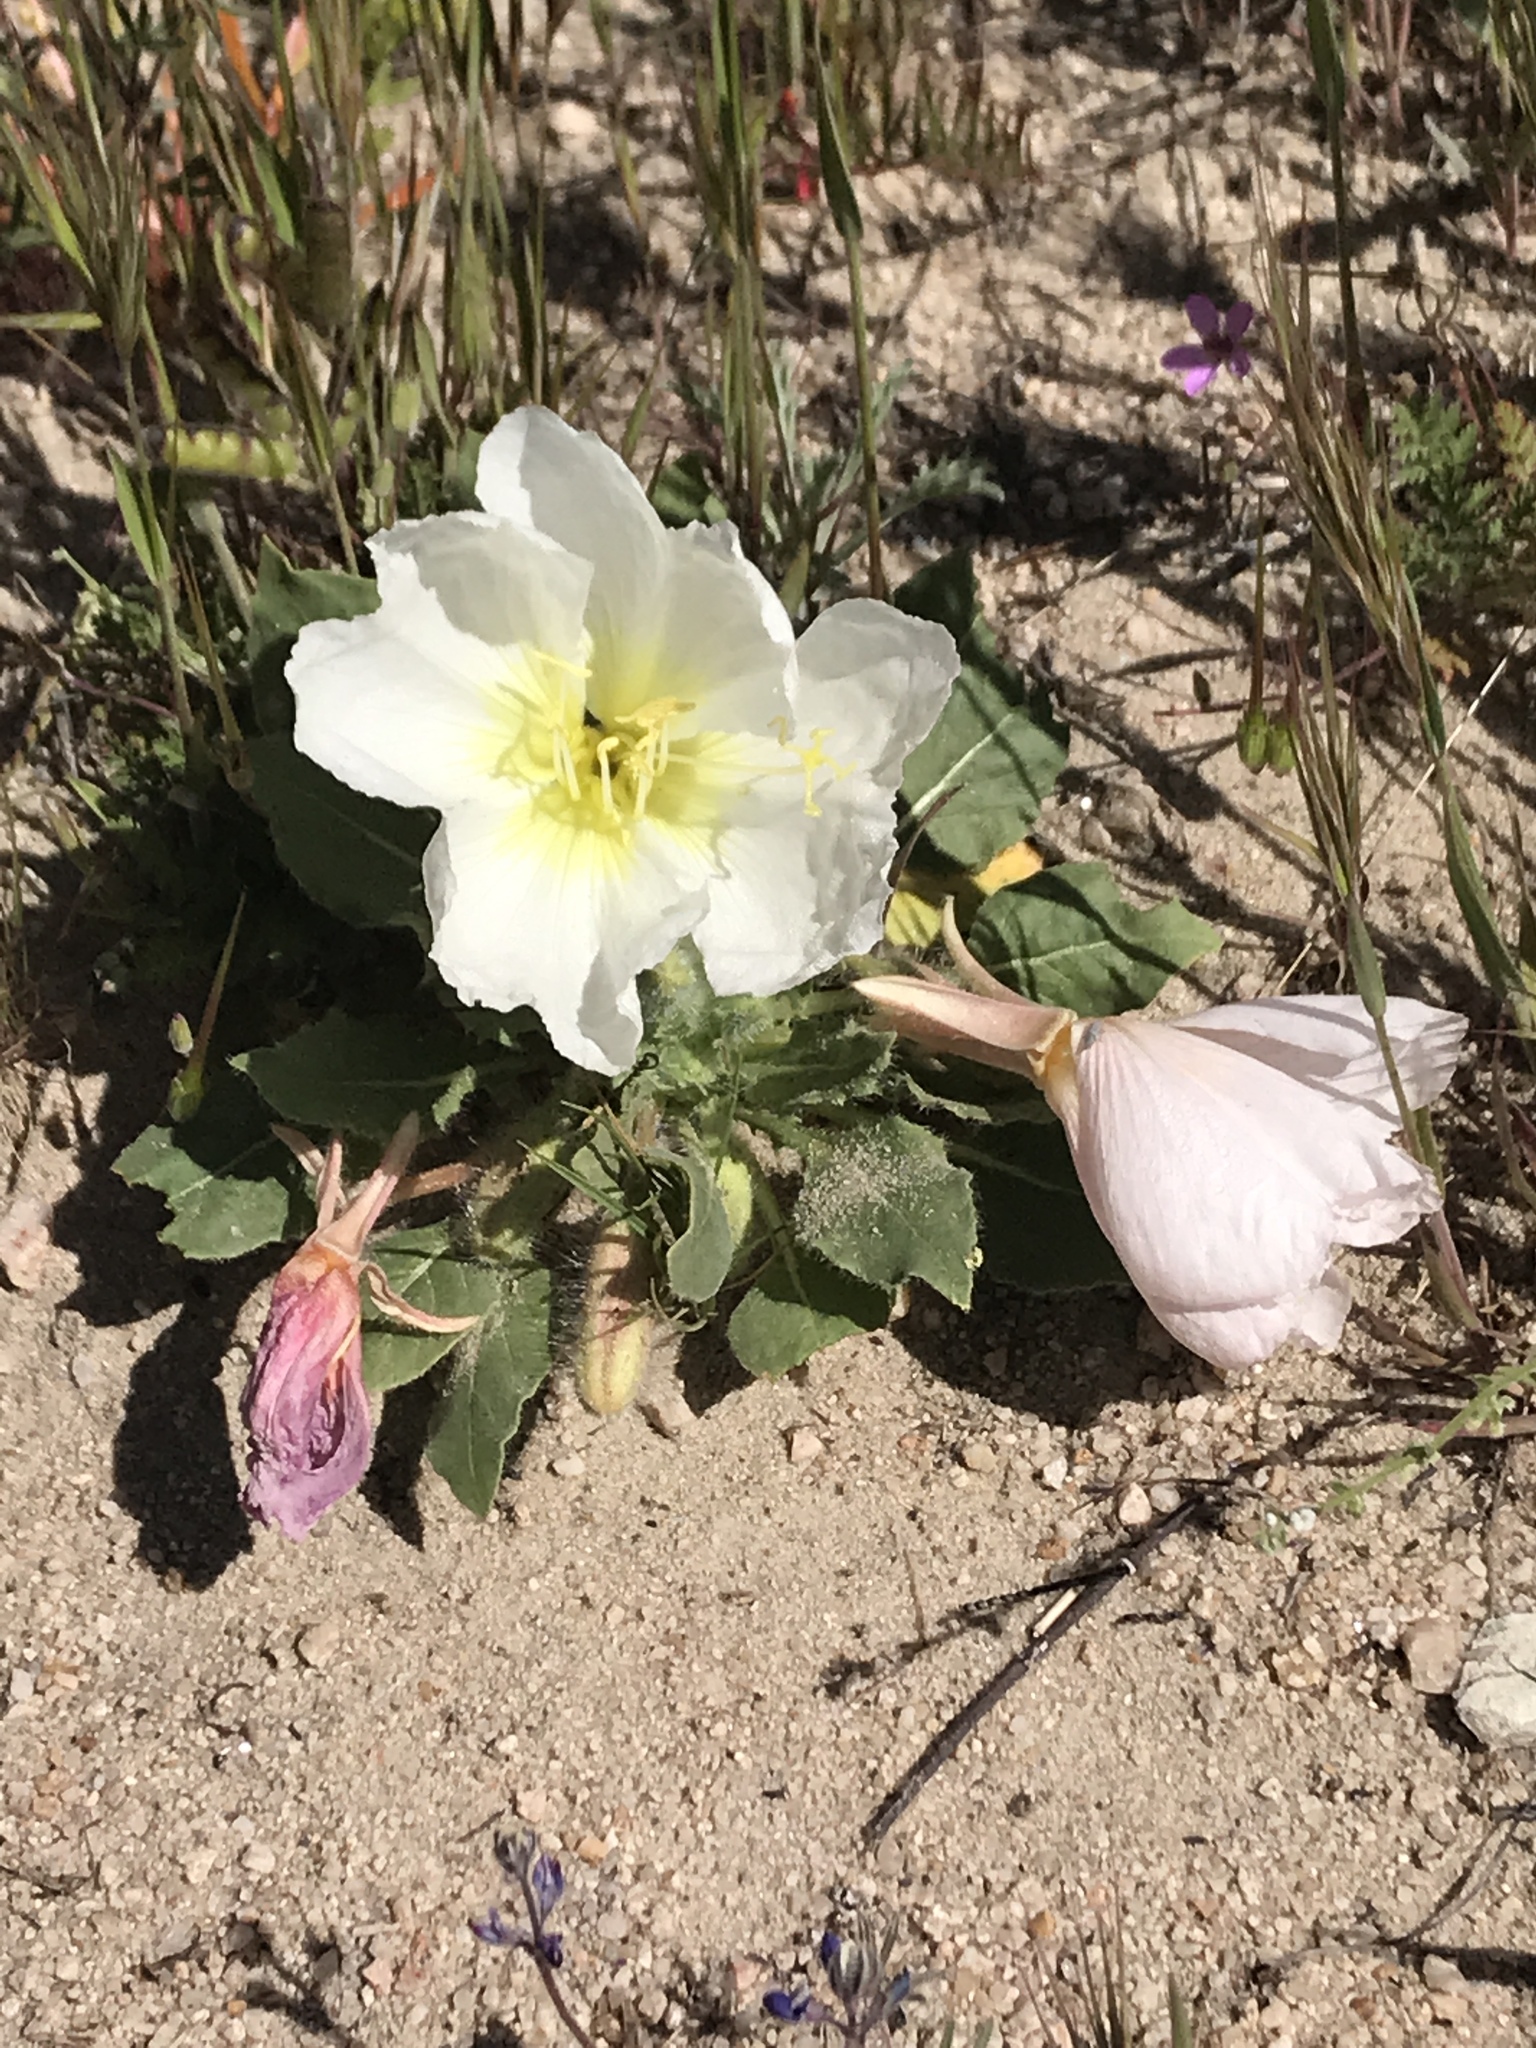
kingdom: Plantae
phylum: Tracheophyta
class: Magnoliopsida
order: Myrtales
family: Onagraceae
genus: Oenothera
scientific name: Oenothera deltoides
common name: Basket evening-primrose
